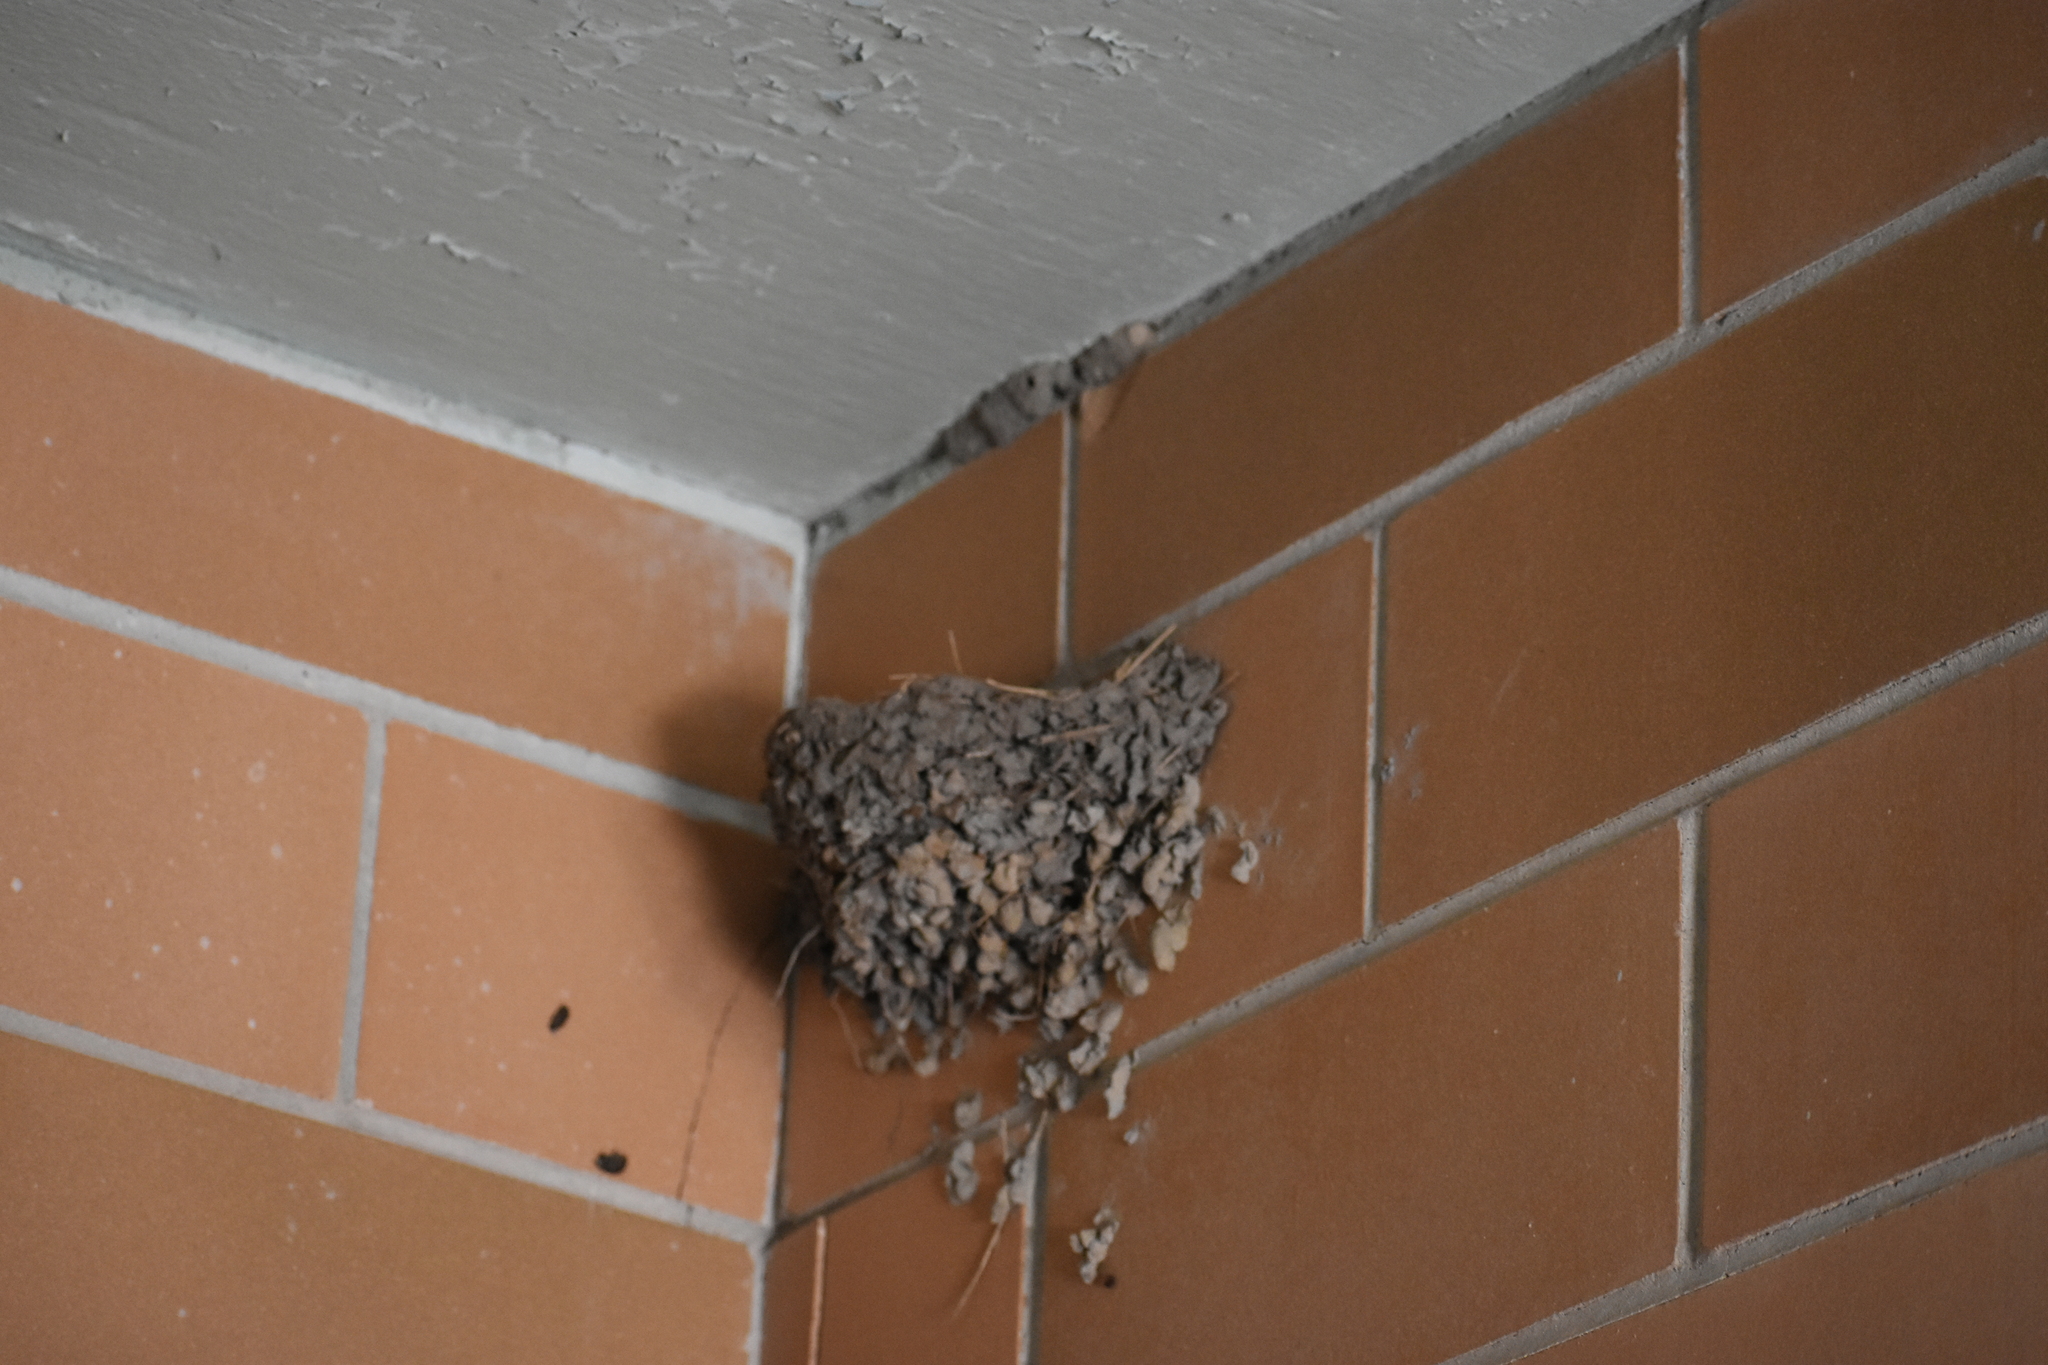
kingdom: Animalia
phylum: Chordata
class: Aves
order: Passeriformes
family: Hirundinidae
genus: Hirundo
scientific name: Hirundo rustica
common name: Barn swallow
